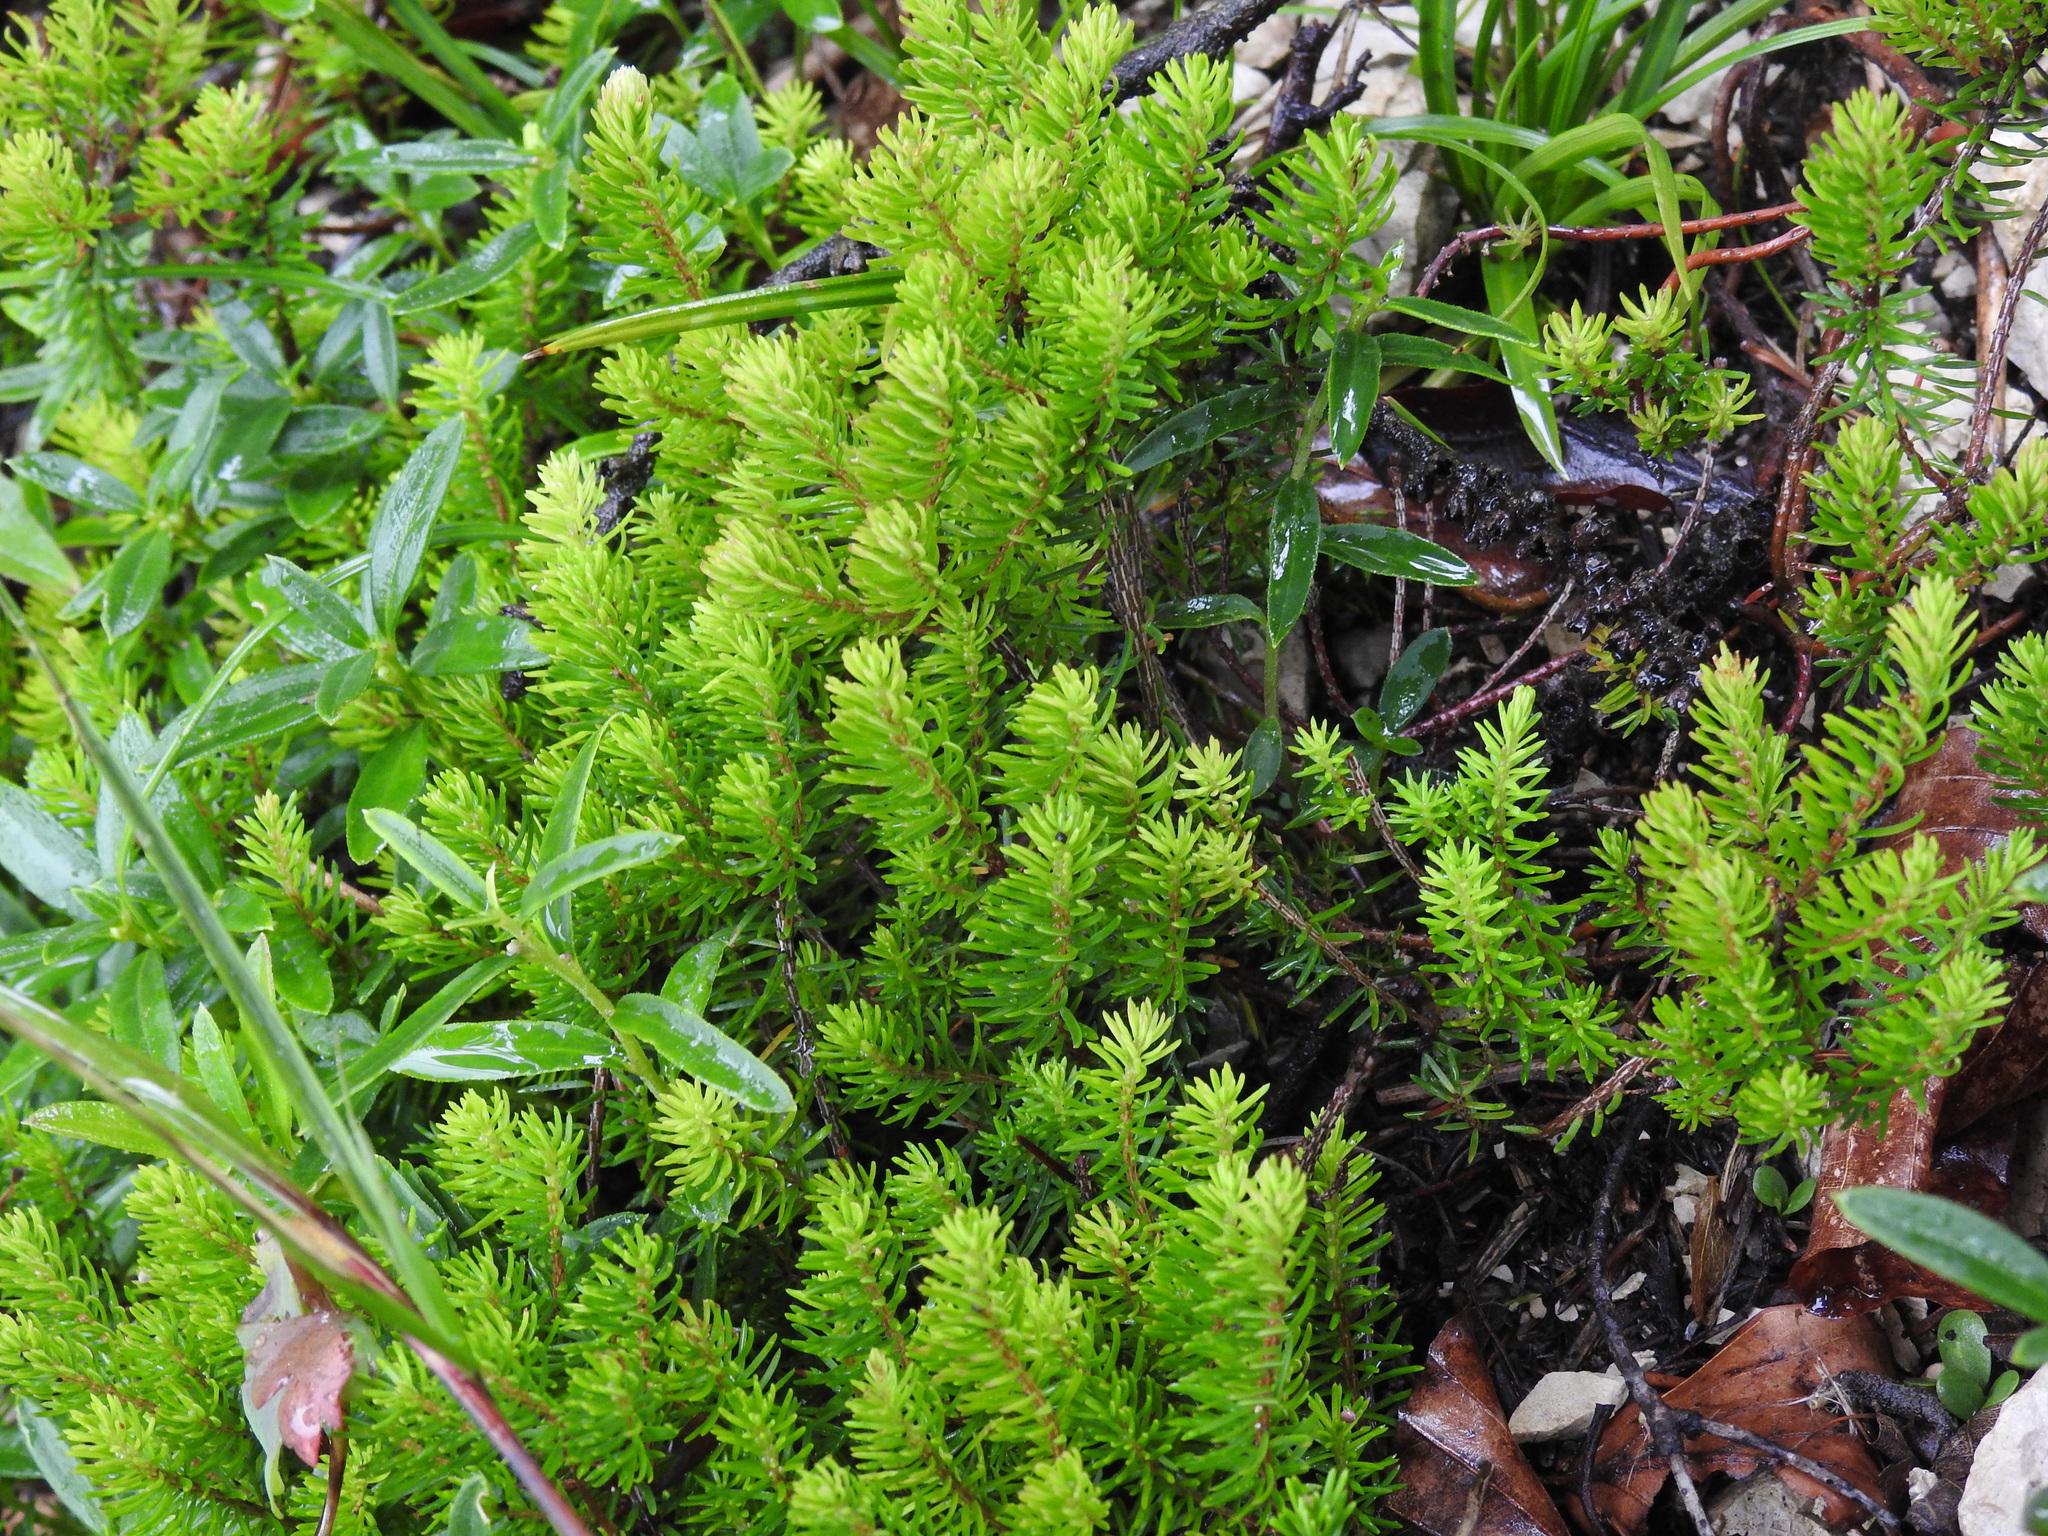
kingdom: Plantae
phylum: Tracheophyta
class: Magnoliopsida
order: Ericales
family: Ericaceae
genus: Erica
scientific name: Erica carnea
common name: Winter heath
